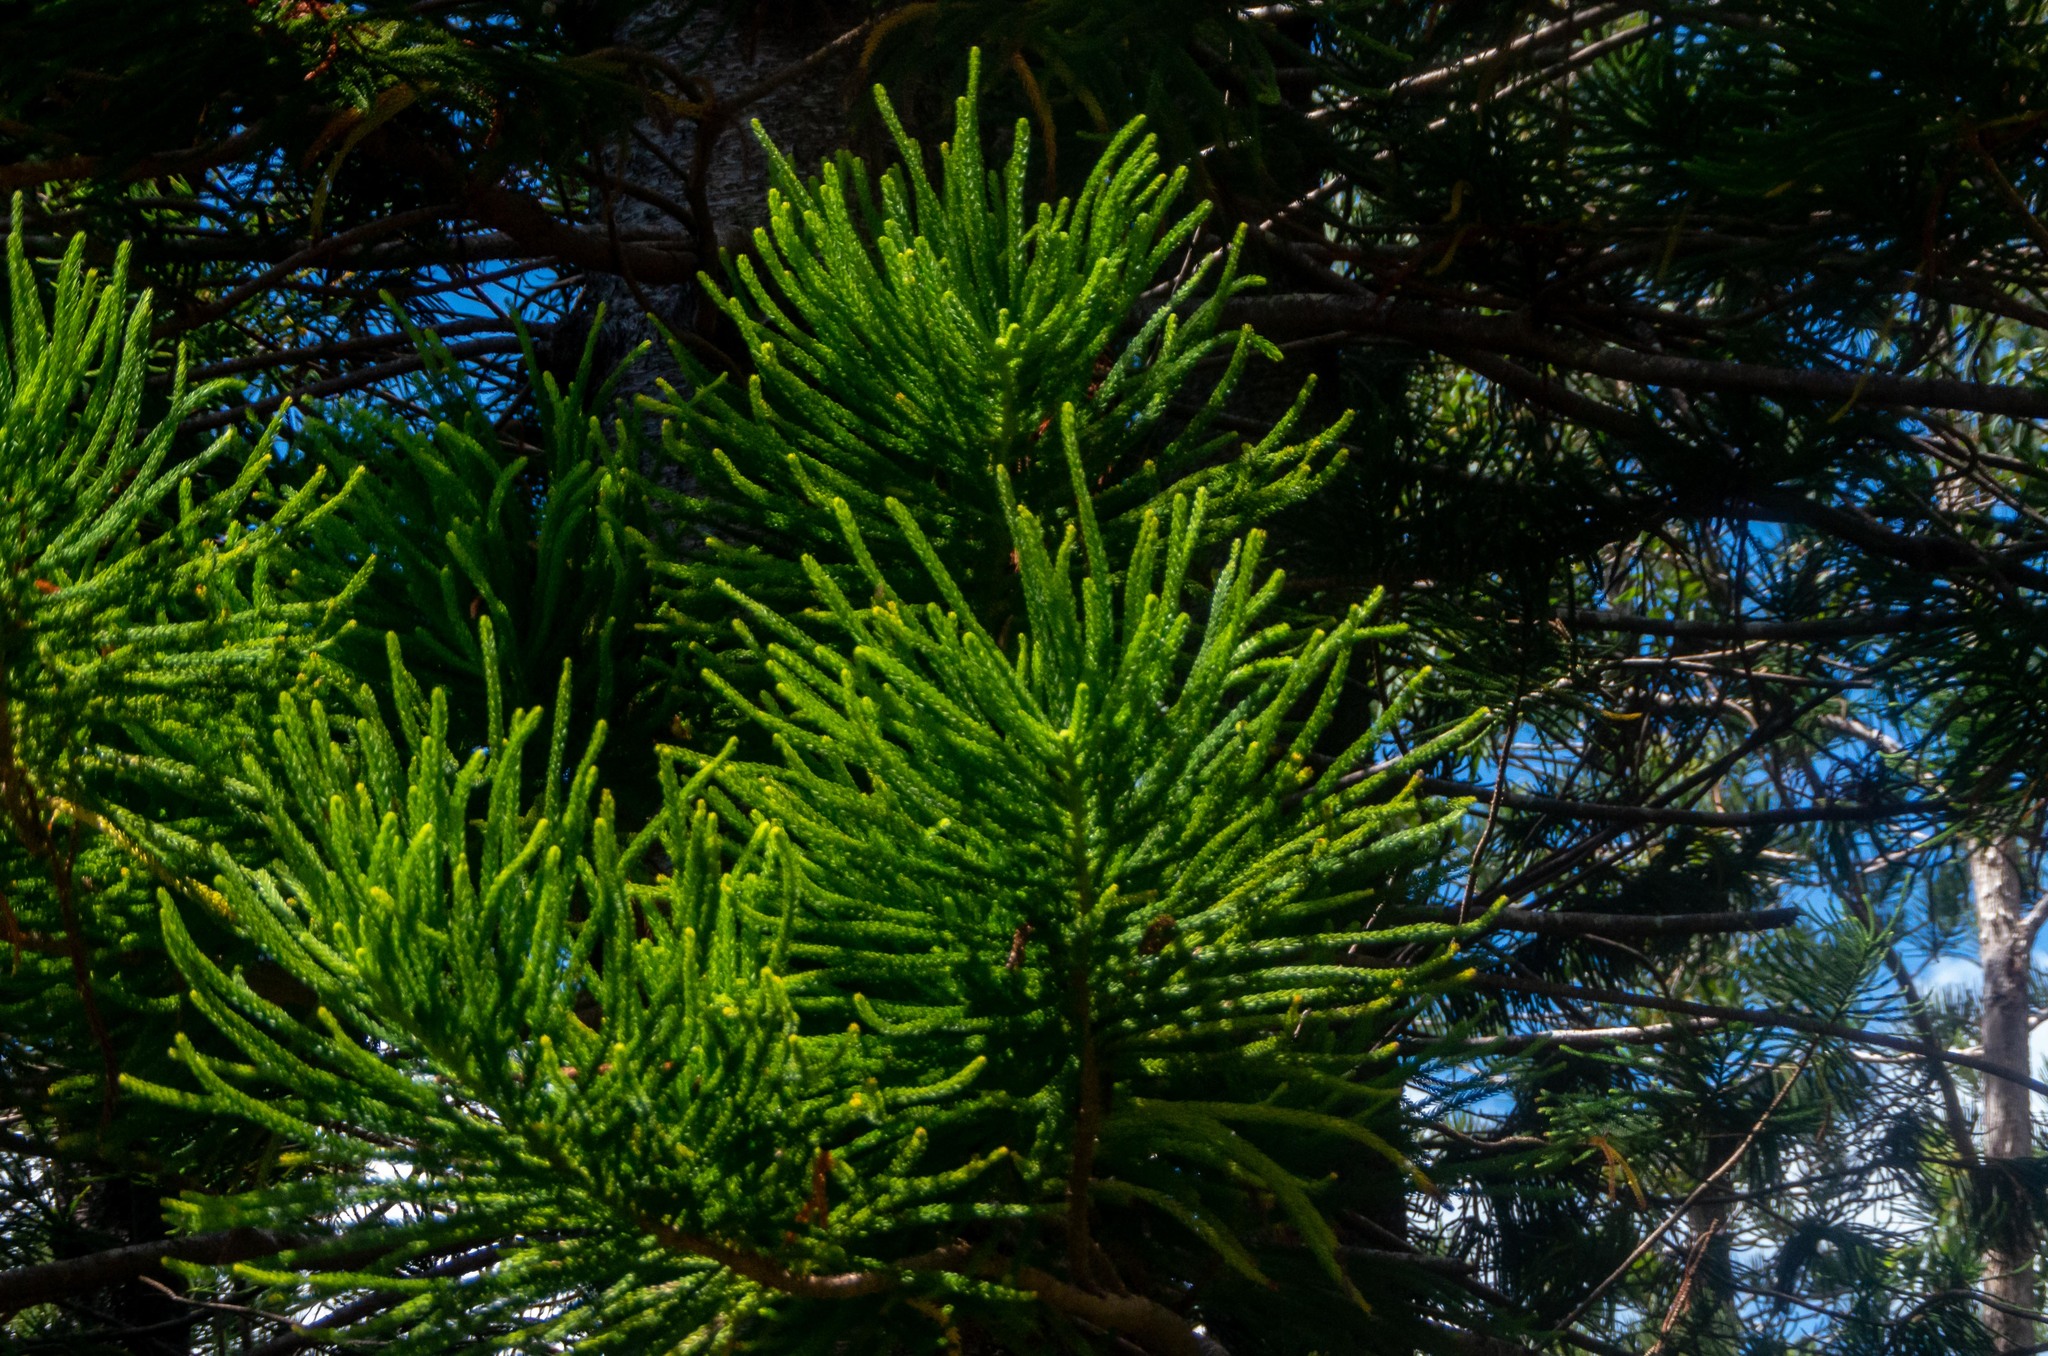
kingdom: Plantae
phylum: Tracheophyta
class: Pinopsida
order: Pinales
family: Araucariaceae
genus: Araucaria
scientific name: Araucaria columnaris
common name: Coral reef araucaria
